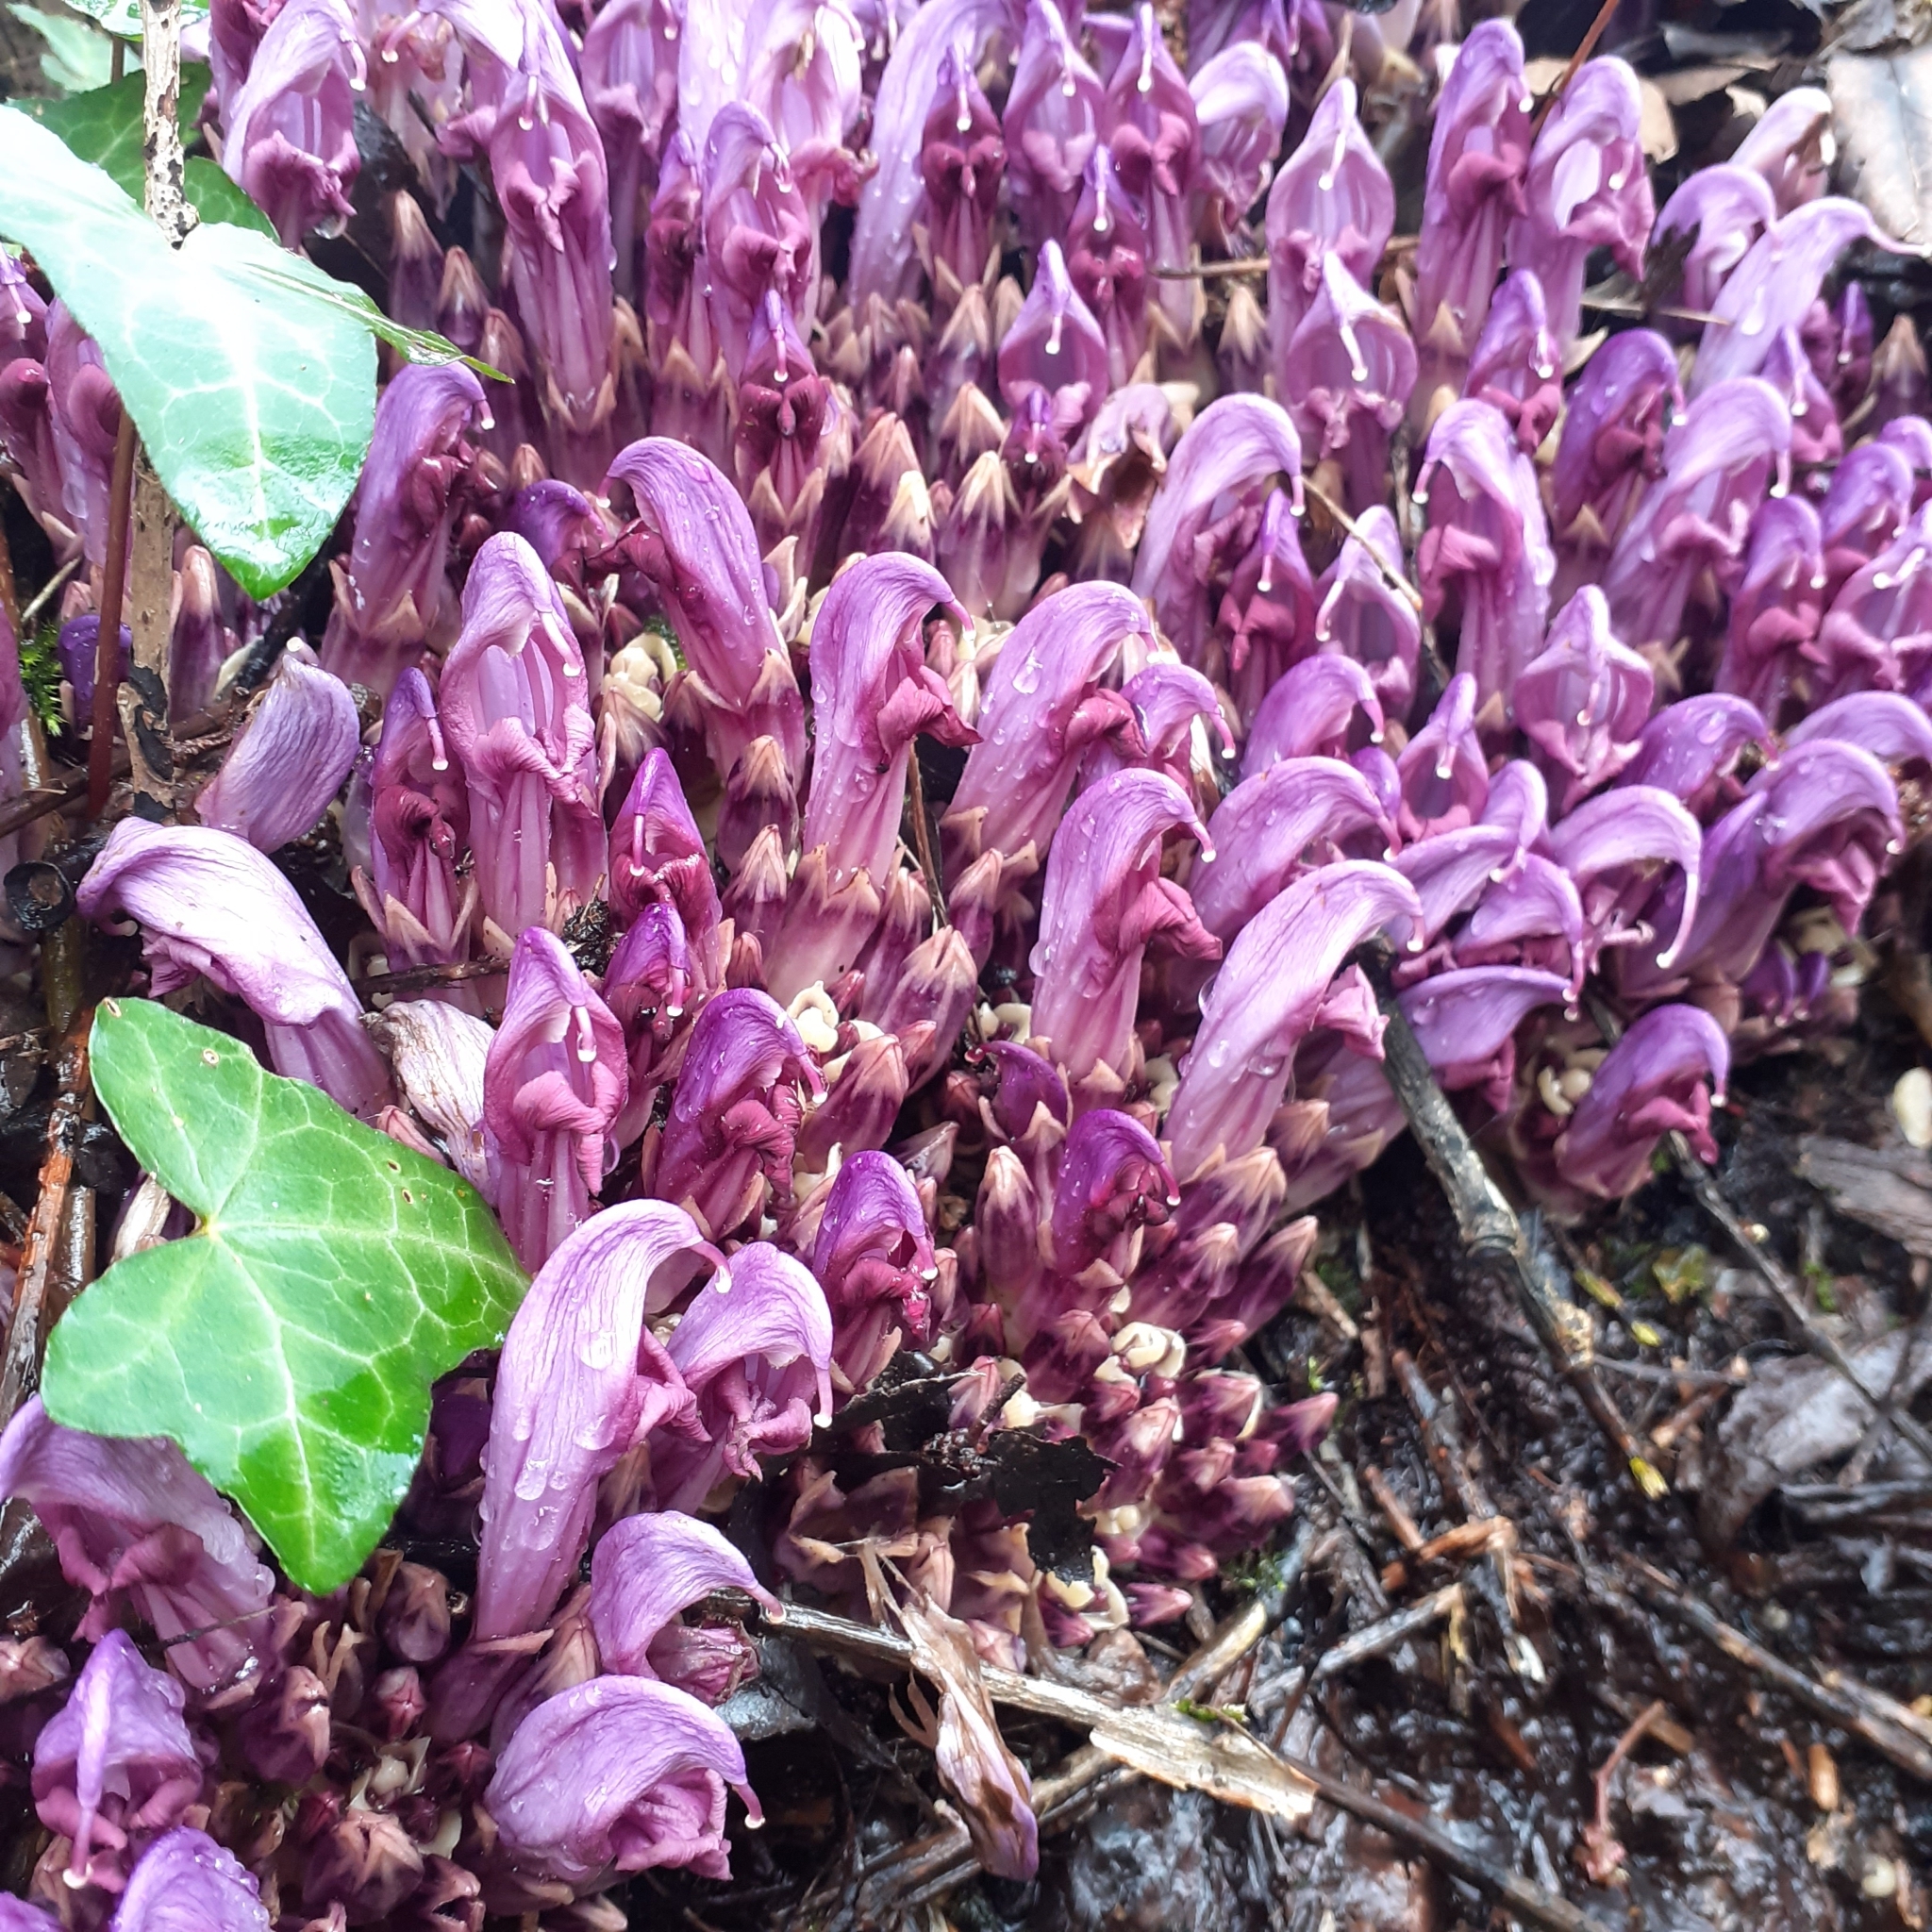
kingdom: Plantae
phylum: Tracheophyta
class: Magnoliopsida
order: Lamiales
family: Orobanchaceae
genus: Lathraea
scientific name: Lathraea clandestina
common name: Purple toothwort
